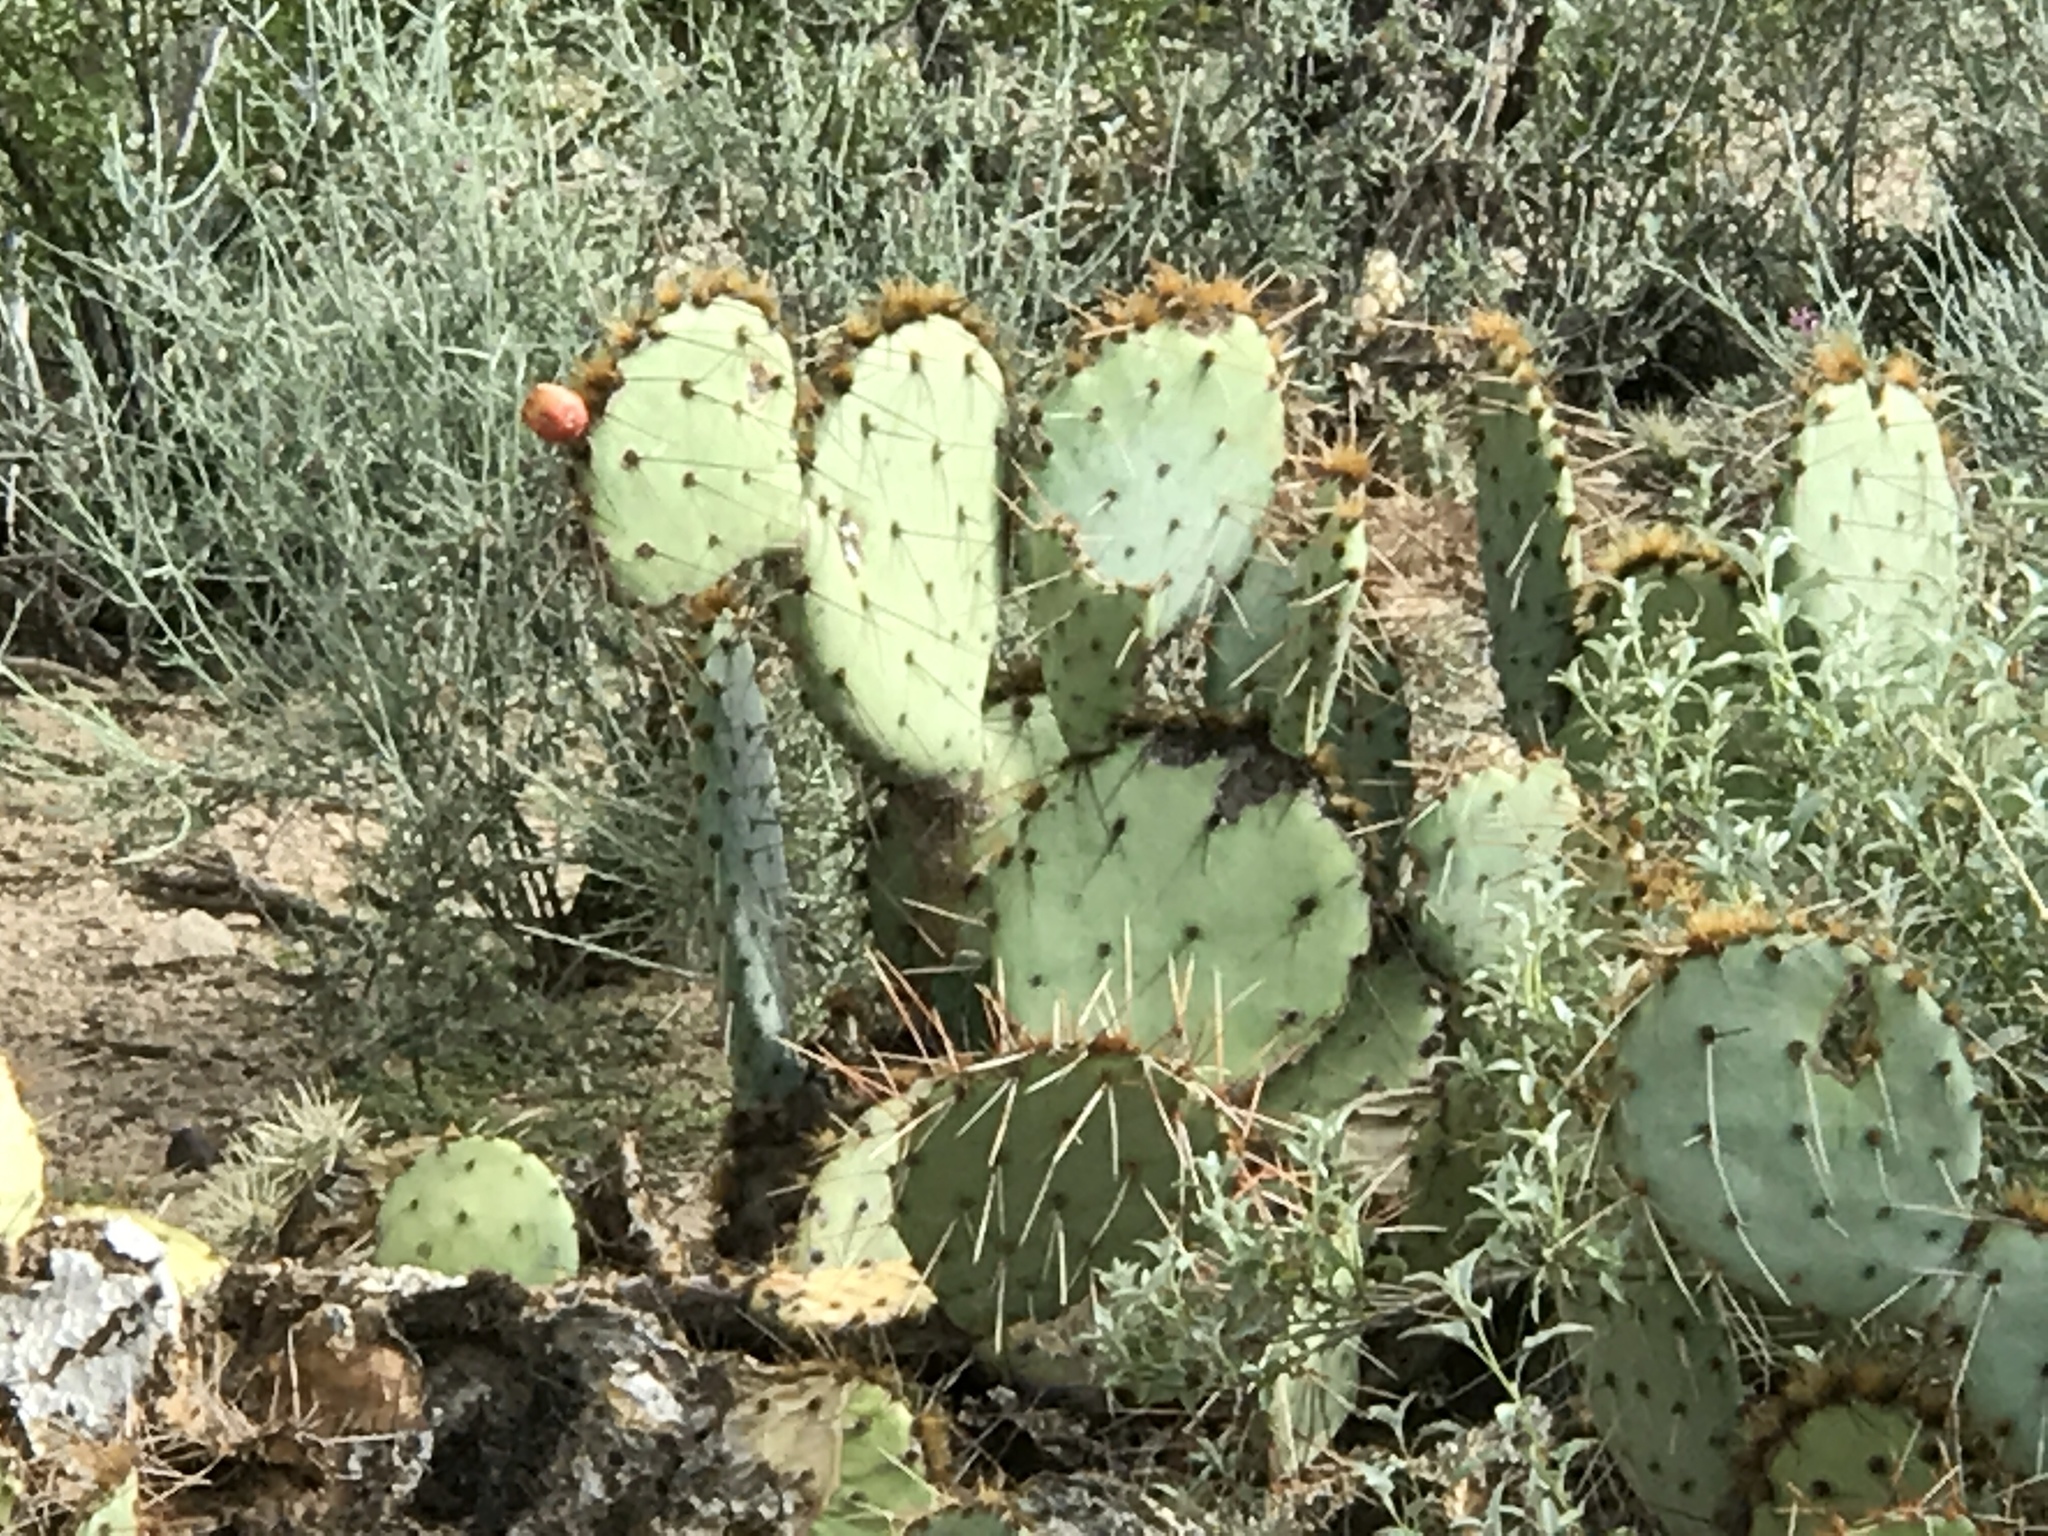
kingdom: Plantae
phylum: Tracheophyta
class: Magnoliopsida
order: Caryophyllales
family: Cactaceae
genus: Opuntia
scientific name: Opuntia phaeacantha
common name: New mexico prickly-pear
